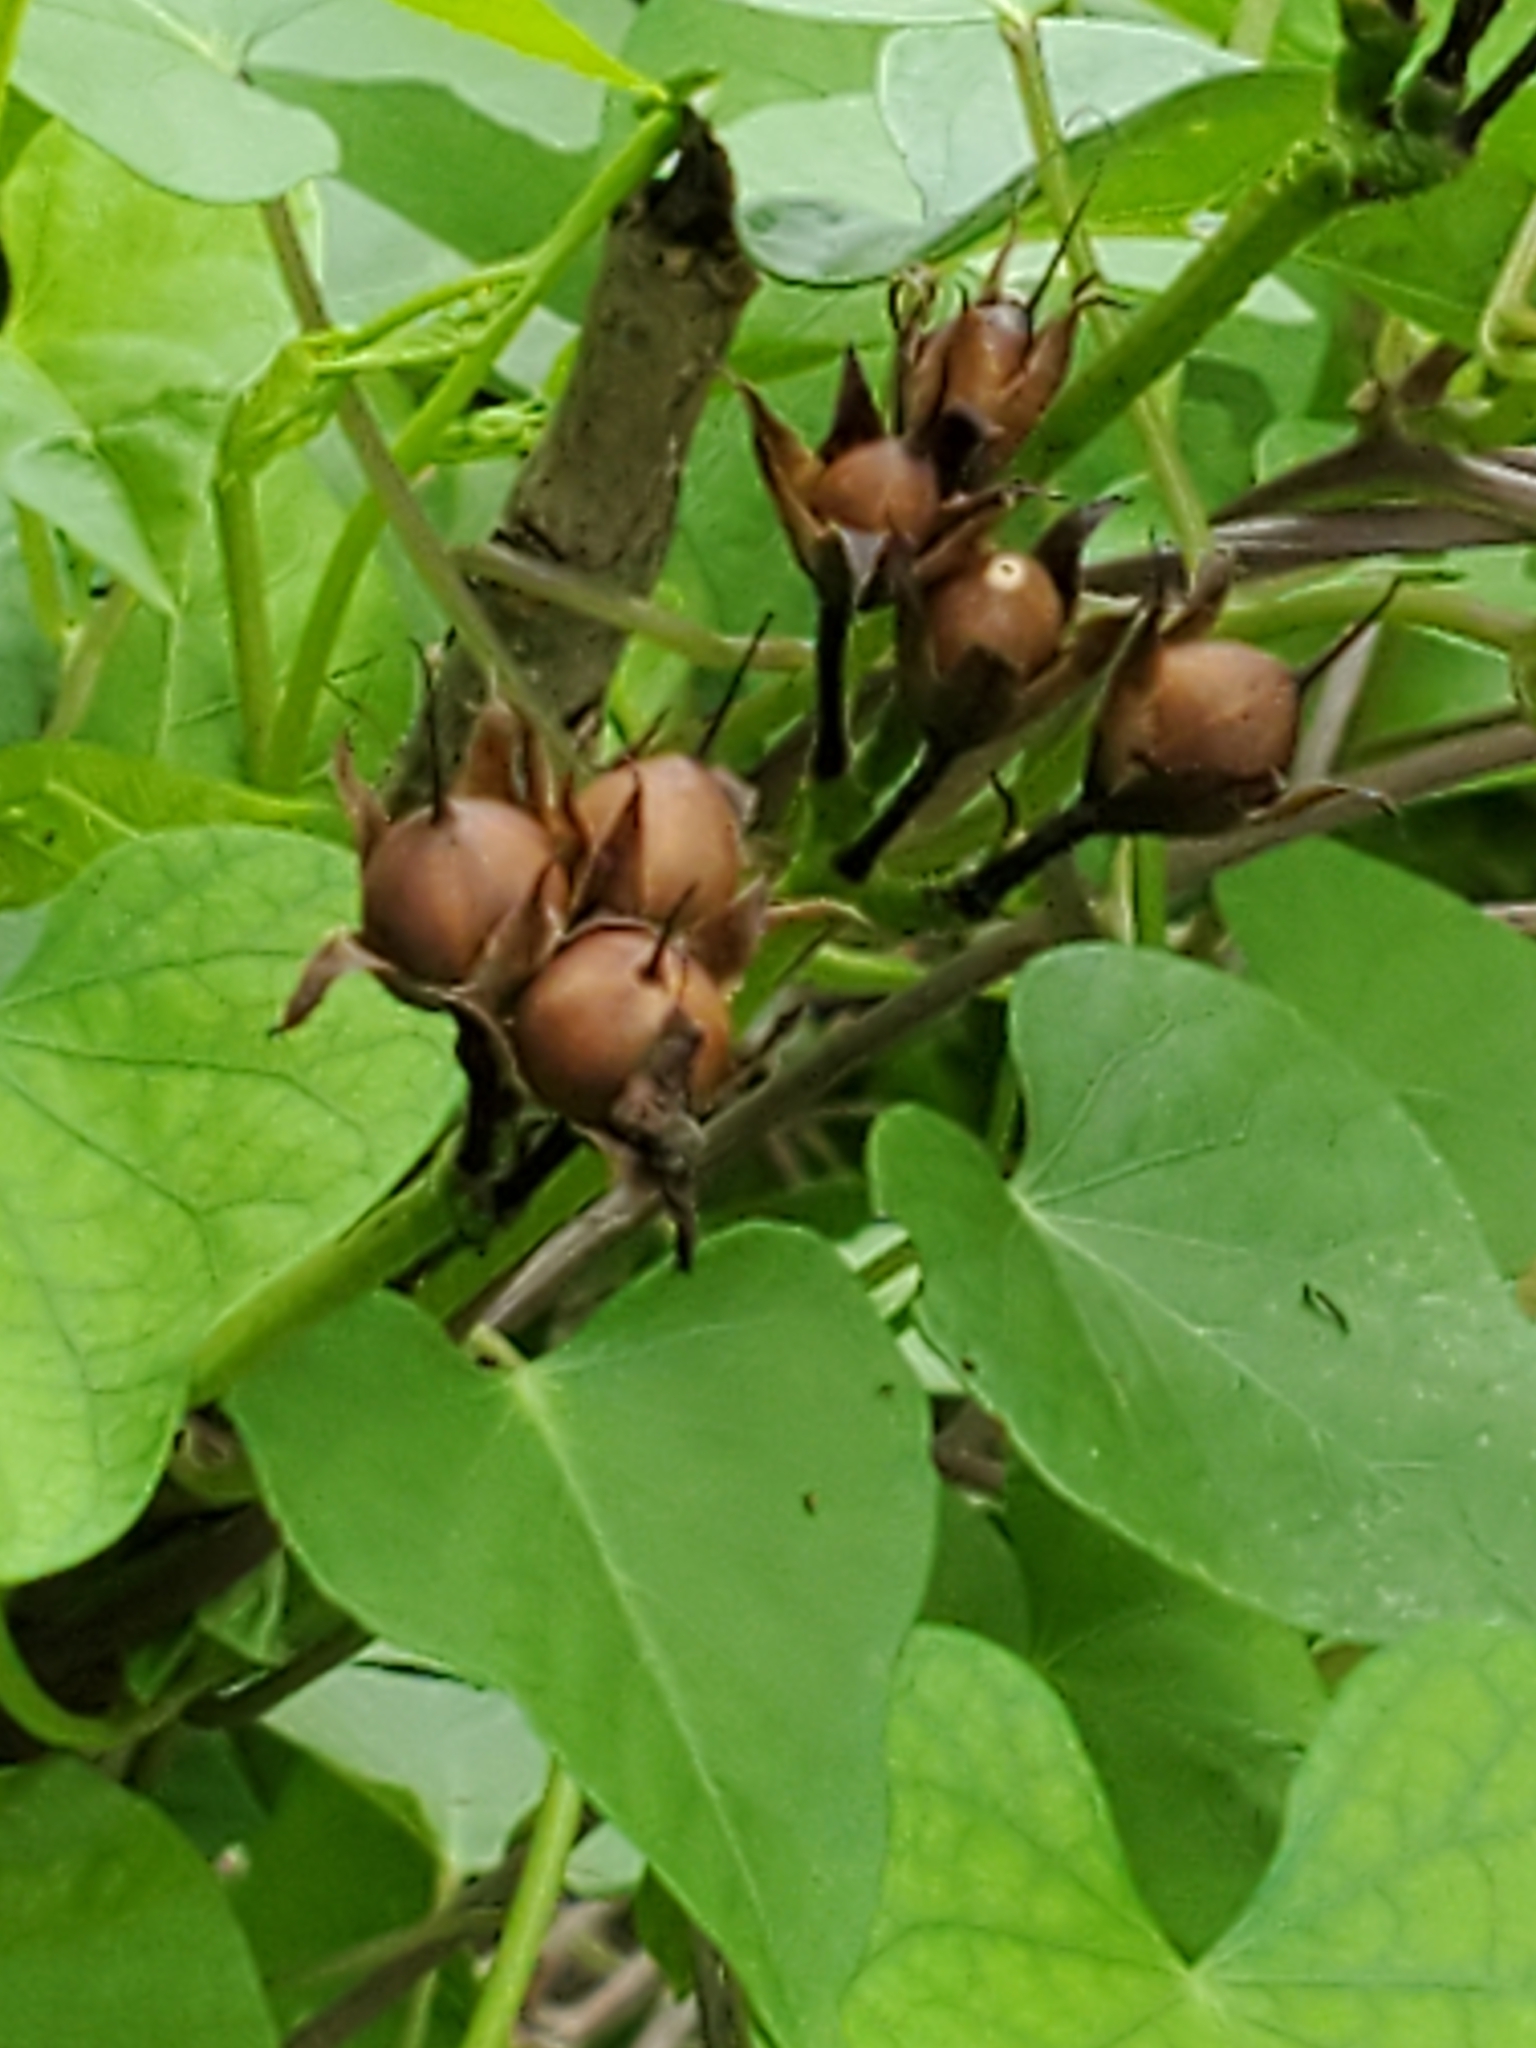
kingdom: Plantae
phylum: Tracheophyta
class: Magnoliopsida
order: Solanales
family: Convolvulaceae
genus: Ipomoea
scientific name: Ipomoea cordatotriloba
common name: Cotton morning glory
